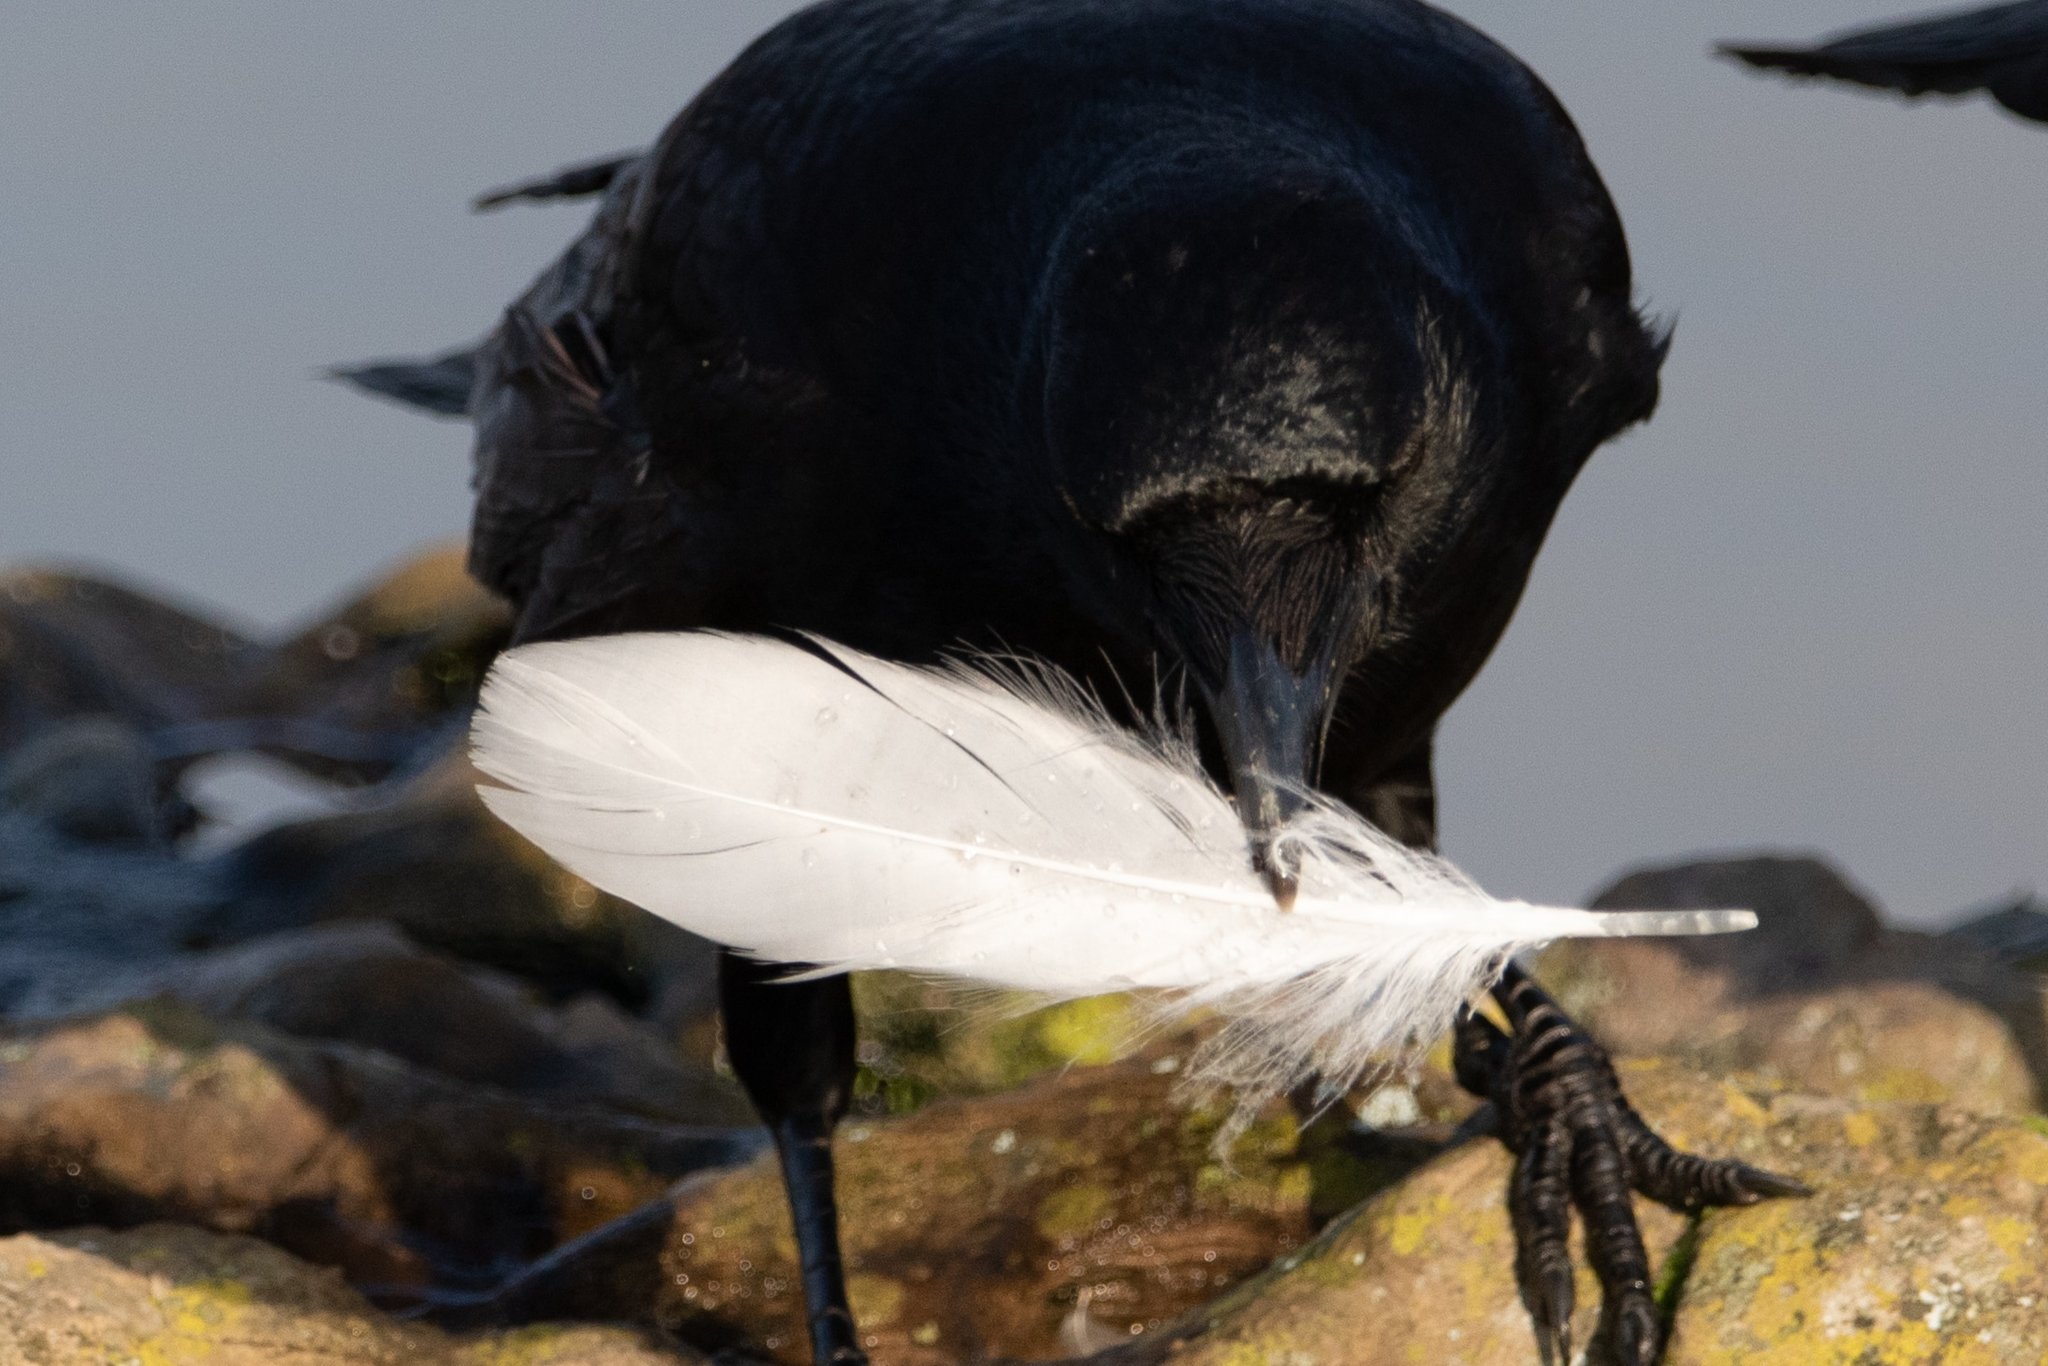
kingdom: Animalia
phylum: Chordata
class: Aves
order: Charadriiformes
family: Laridae
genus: Larus
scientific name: Larus
